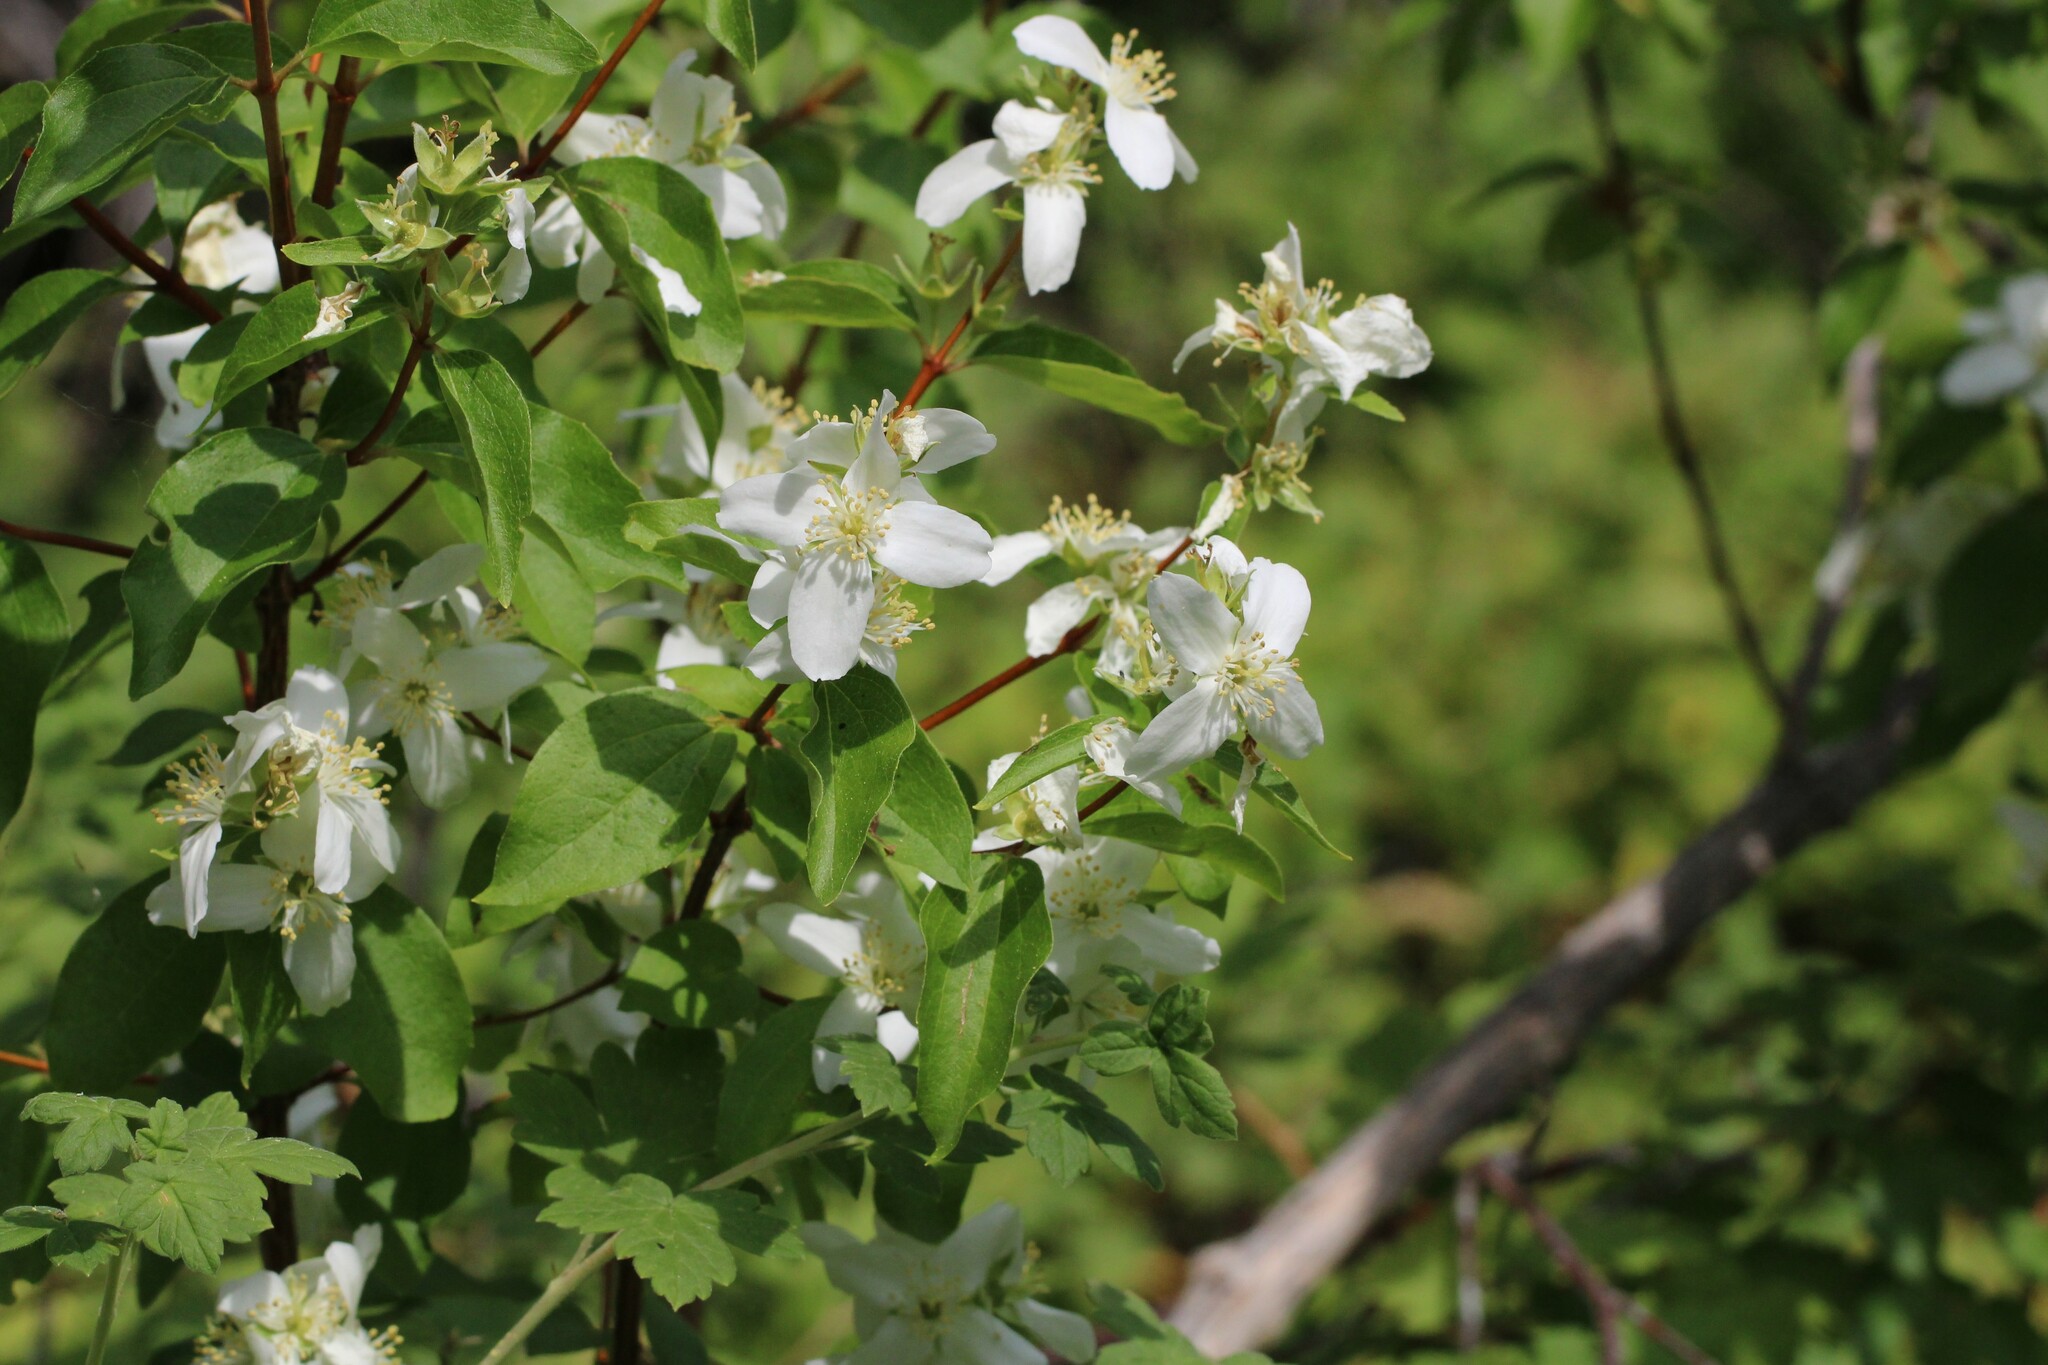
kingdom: Plantae
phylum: Tracheophyta
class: Magnoliopsida
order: Cornales
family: Hydrangeaceae
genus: Philadelphus
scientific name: Philadelphus lewisii
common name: Lewis's mock orange
